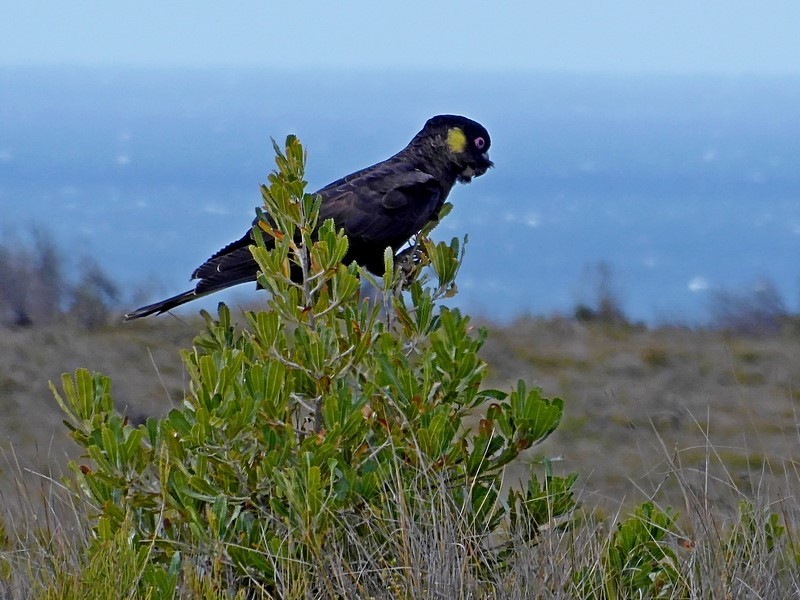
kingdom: Animalia
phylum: Chordata
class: Aves
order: Psittaciformes
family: Cacatuidae
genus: Zanda
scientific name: Zanda funerea
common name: Yellow-tailed black-cockatoo
